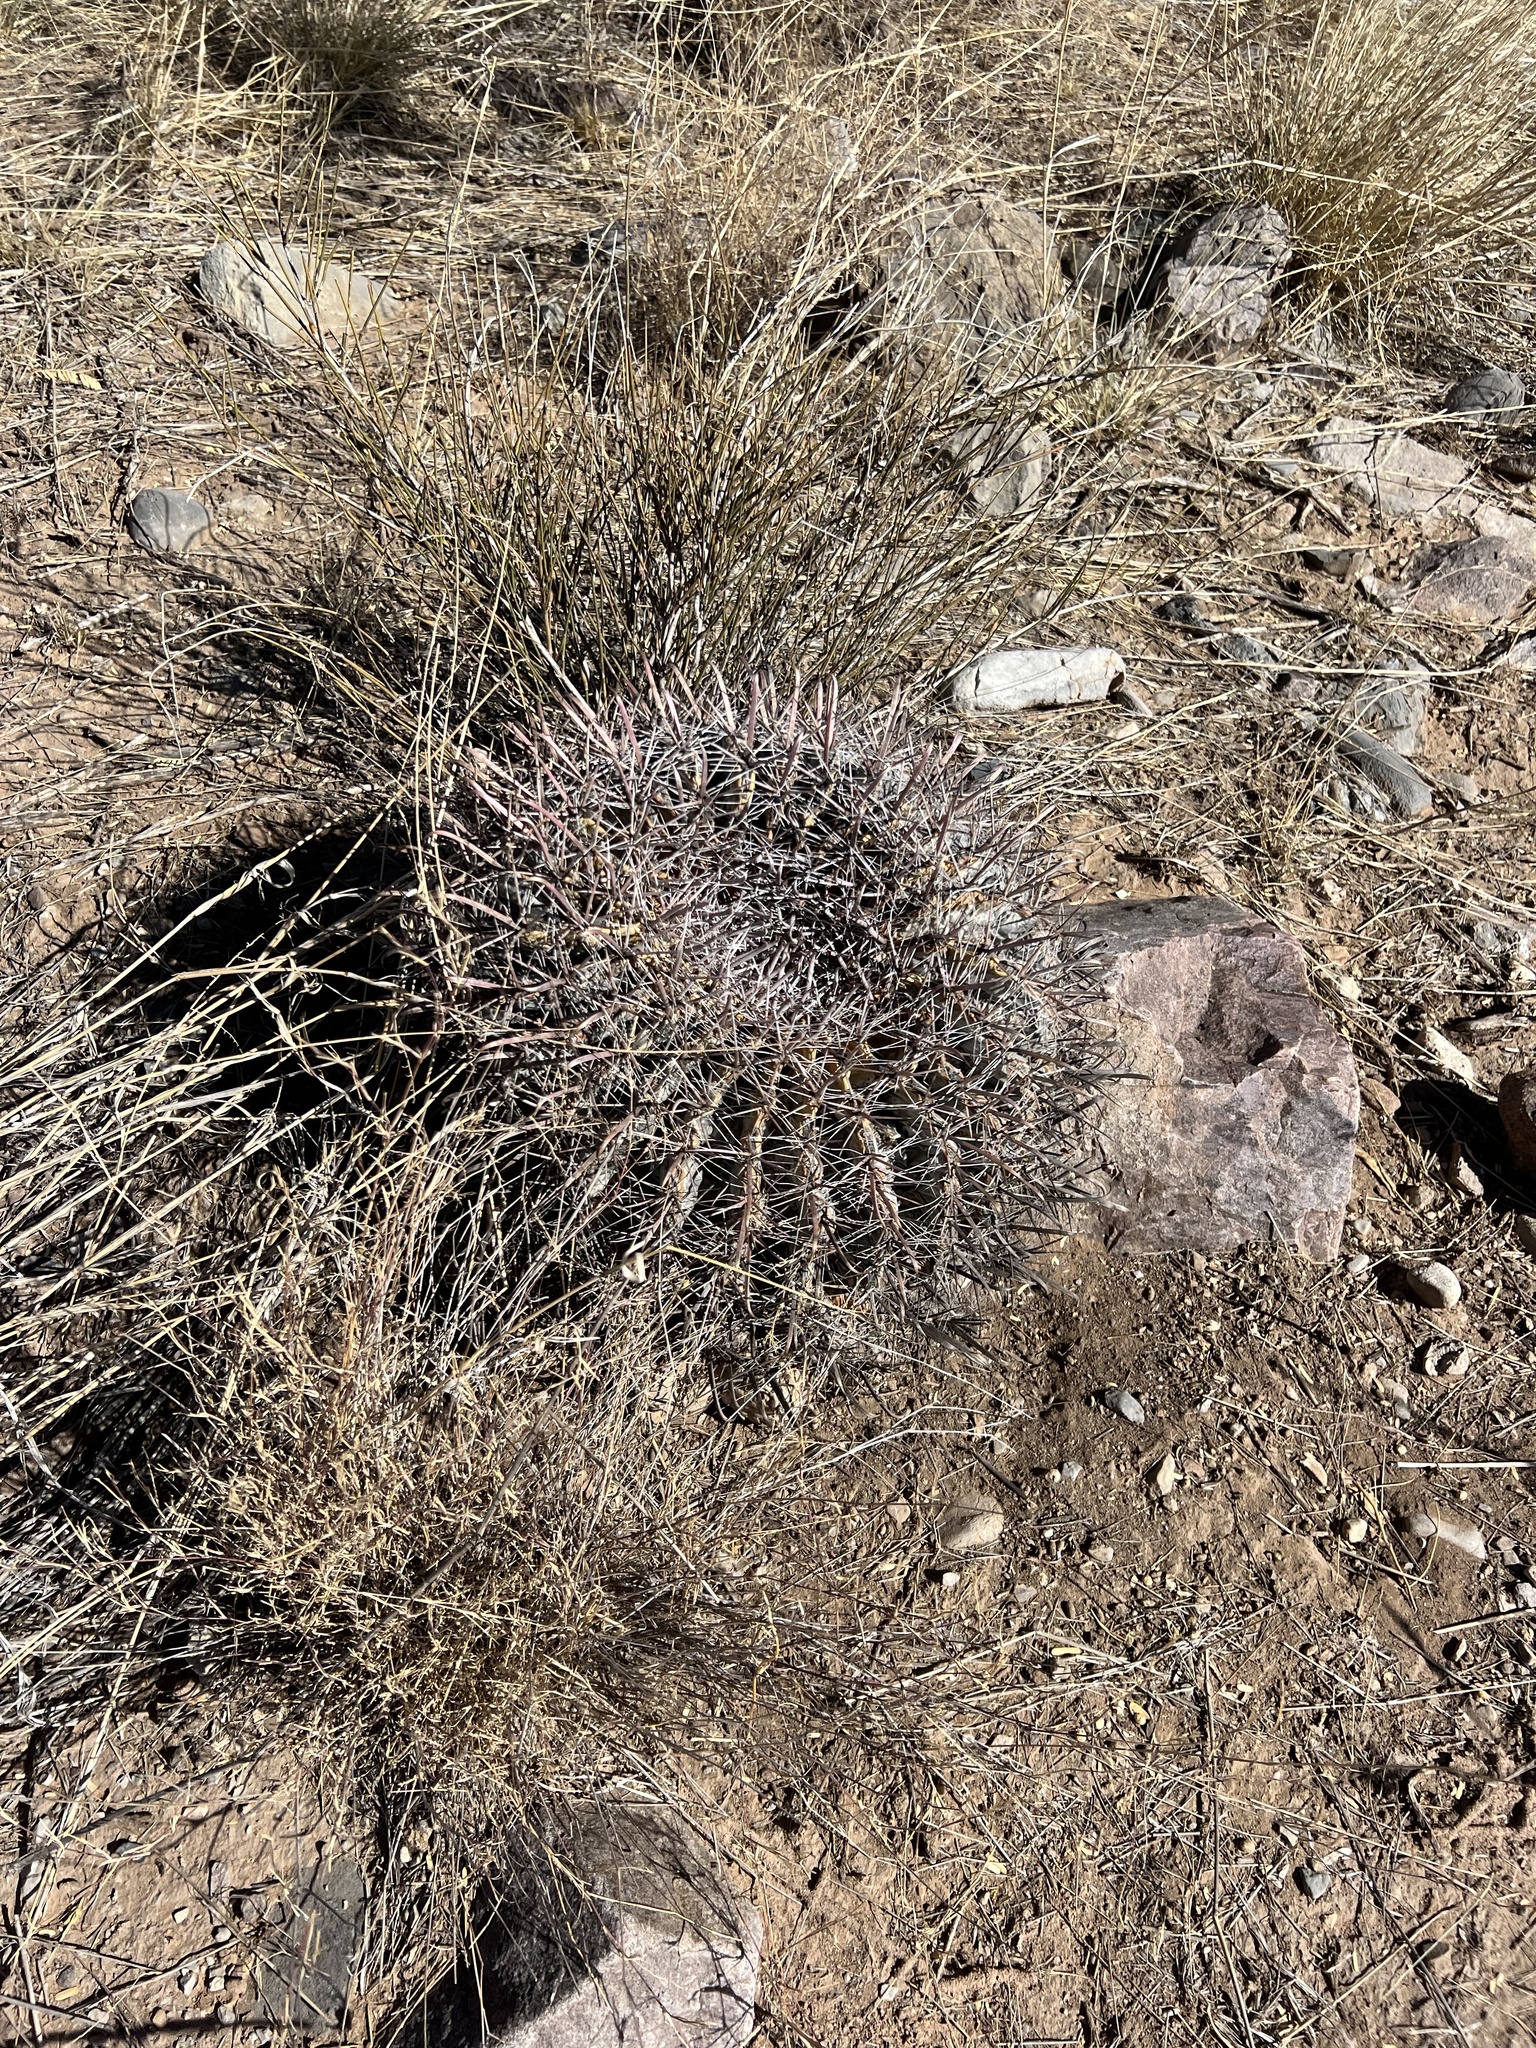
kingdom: Plantae
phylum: Tracheophyta
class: Magnoliopsida
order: Caryophyllales
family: Cactaceae
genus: Ferocactus
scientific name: Ferocactus wislizeni
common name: Candy barrel cactus
